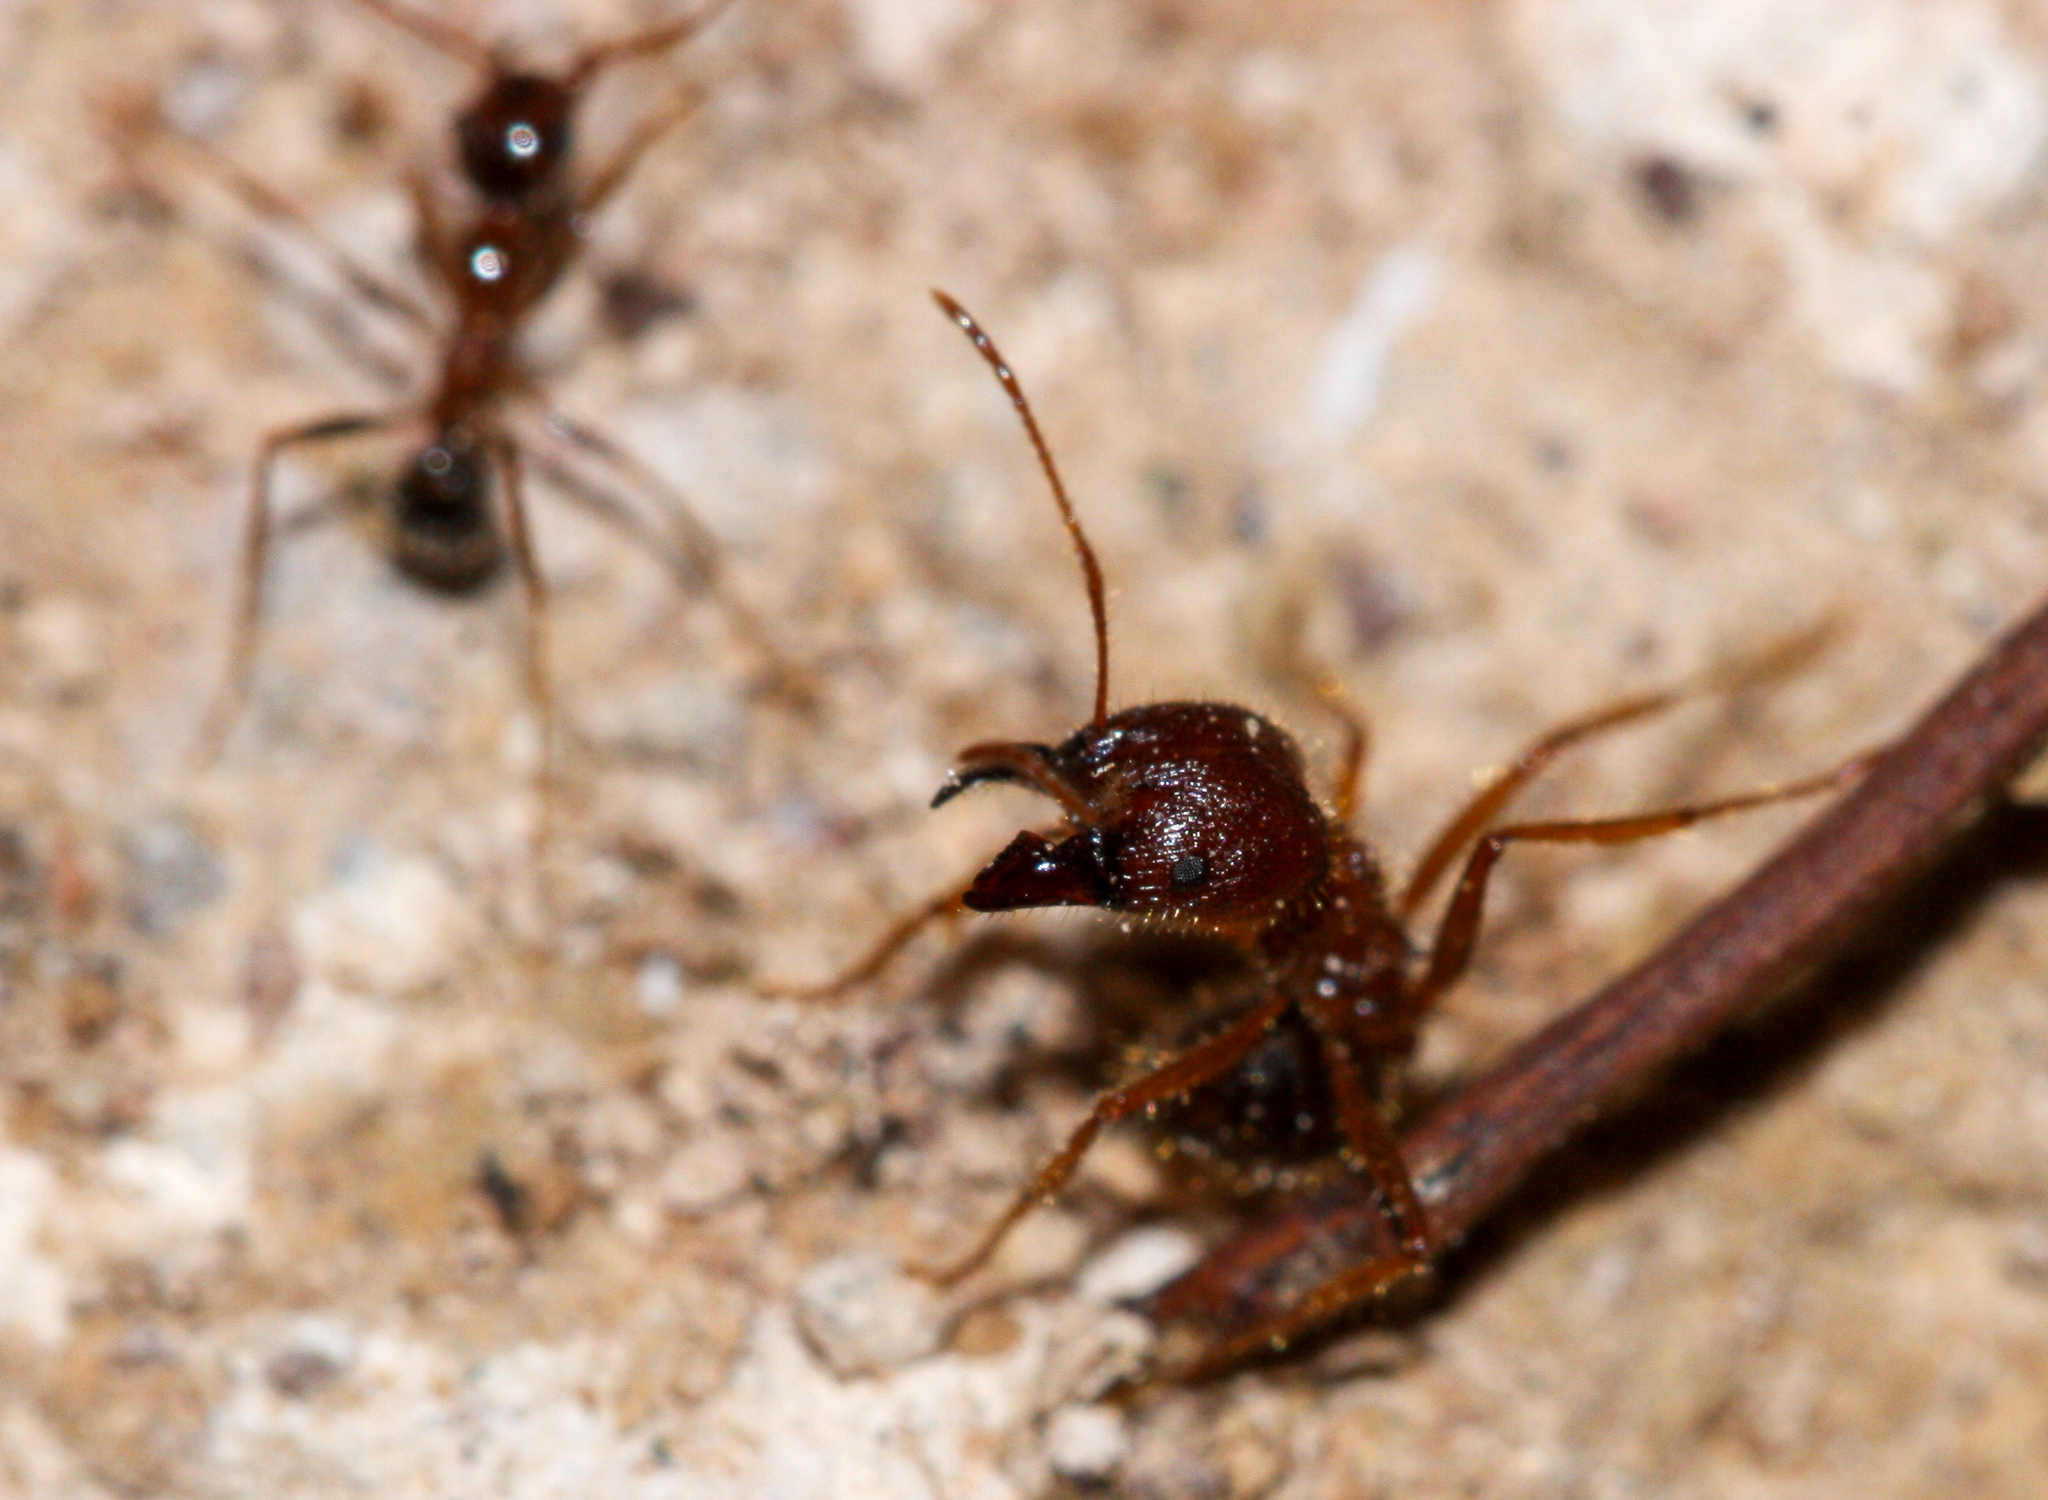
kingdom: Animalia
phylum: Arthropoda
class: Insecta
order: Hymenoptera
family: Formicidae
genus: Pheidole
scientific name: Pheidole obtusospinosa
